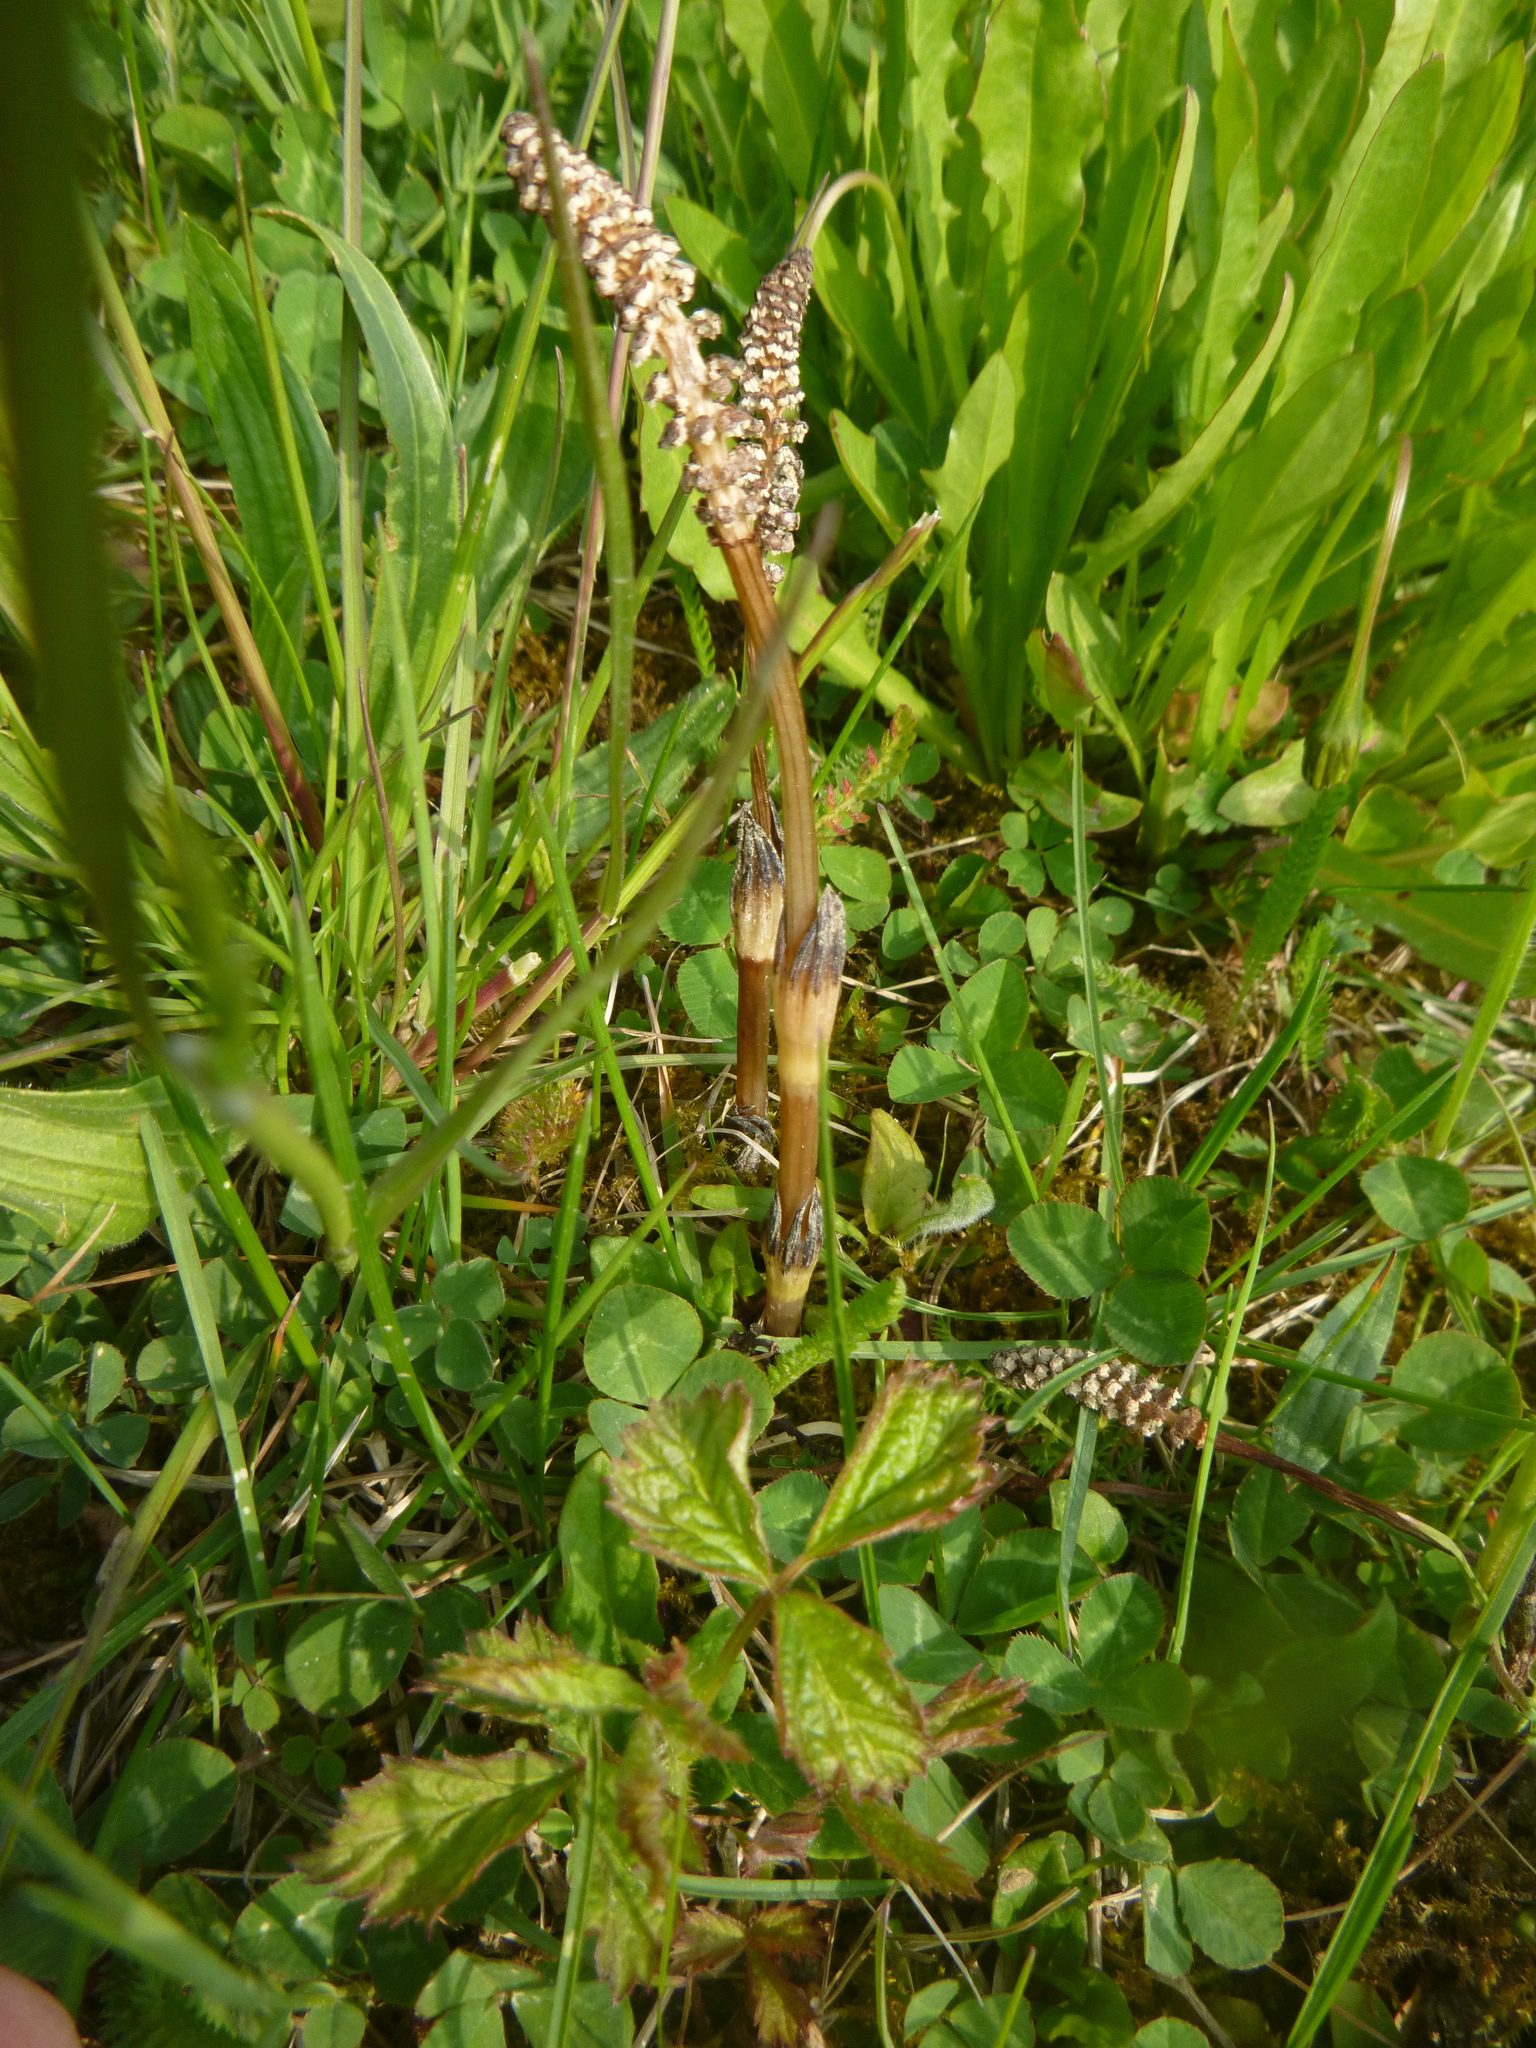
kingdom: Plantae
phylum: Tracheophyta
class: Polypodiopsida
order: Equisetales
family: Equisetaceae
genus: Equisetum
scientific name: Equisetum arvense
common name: Field horsetail
